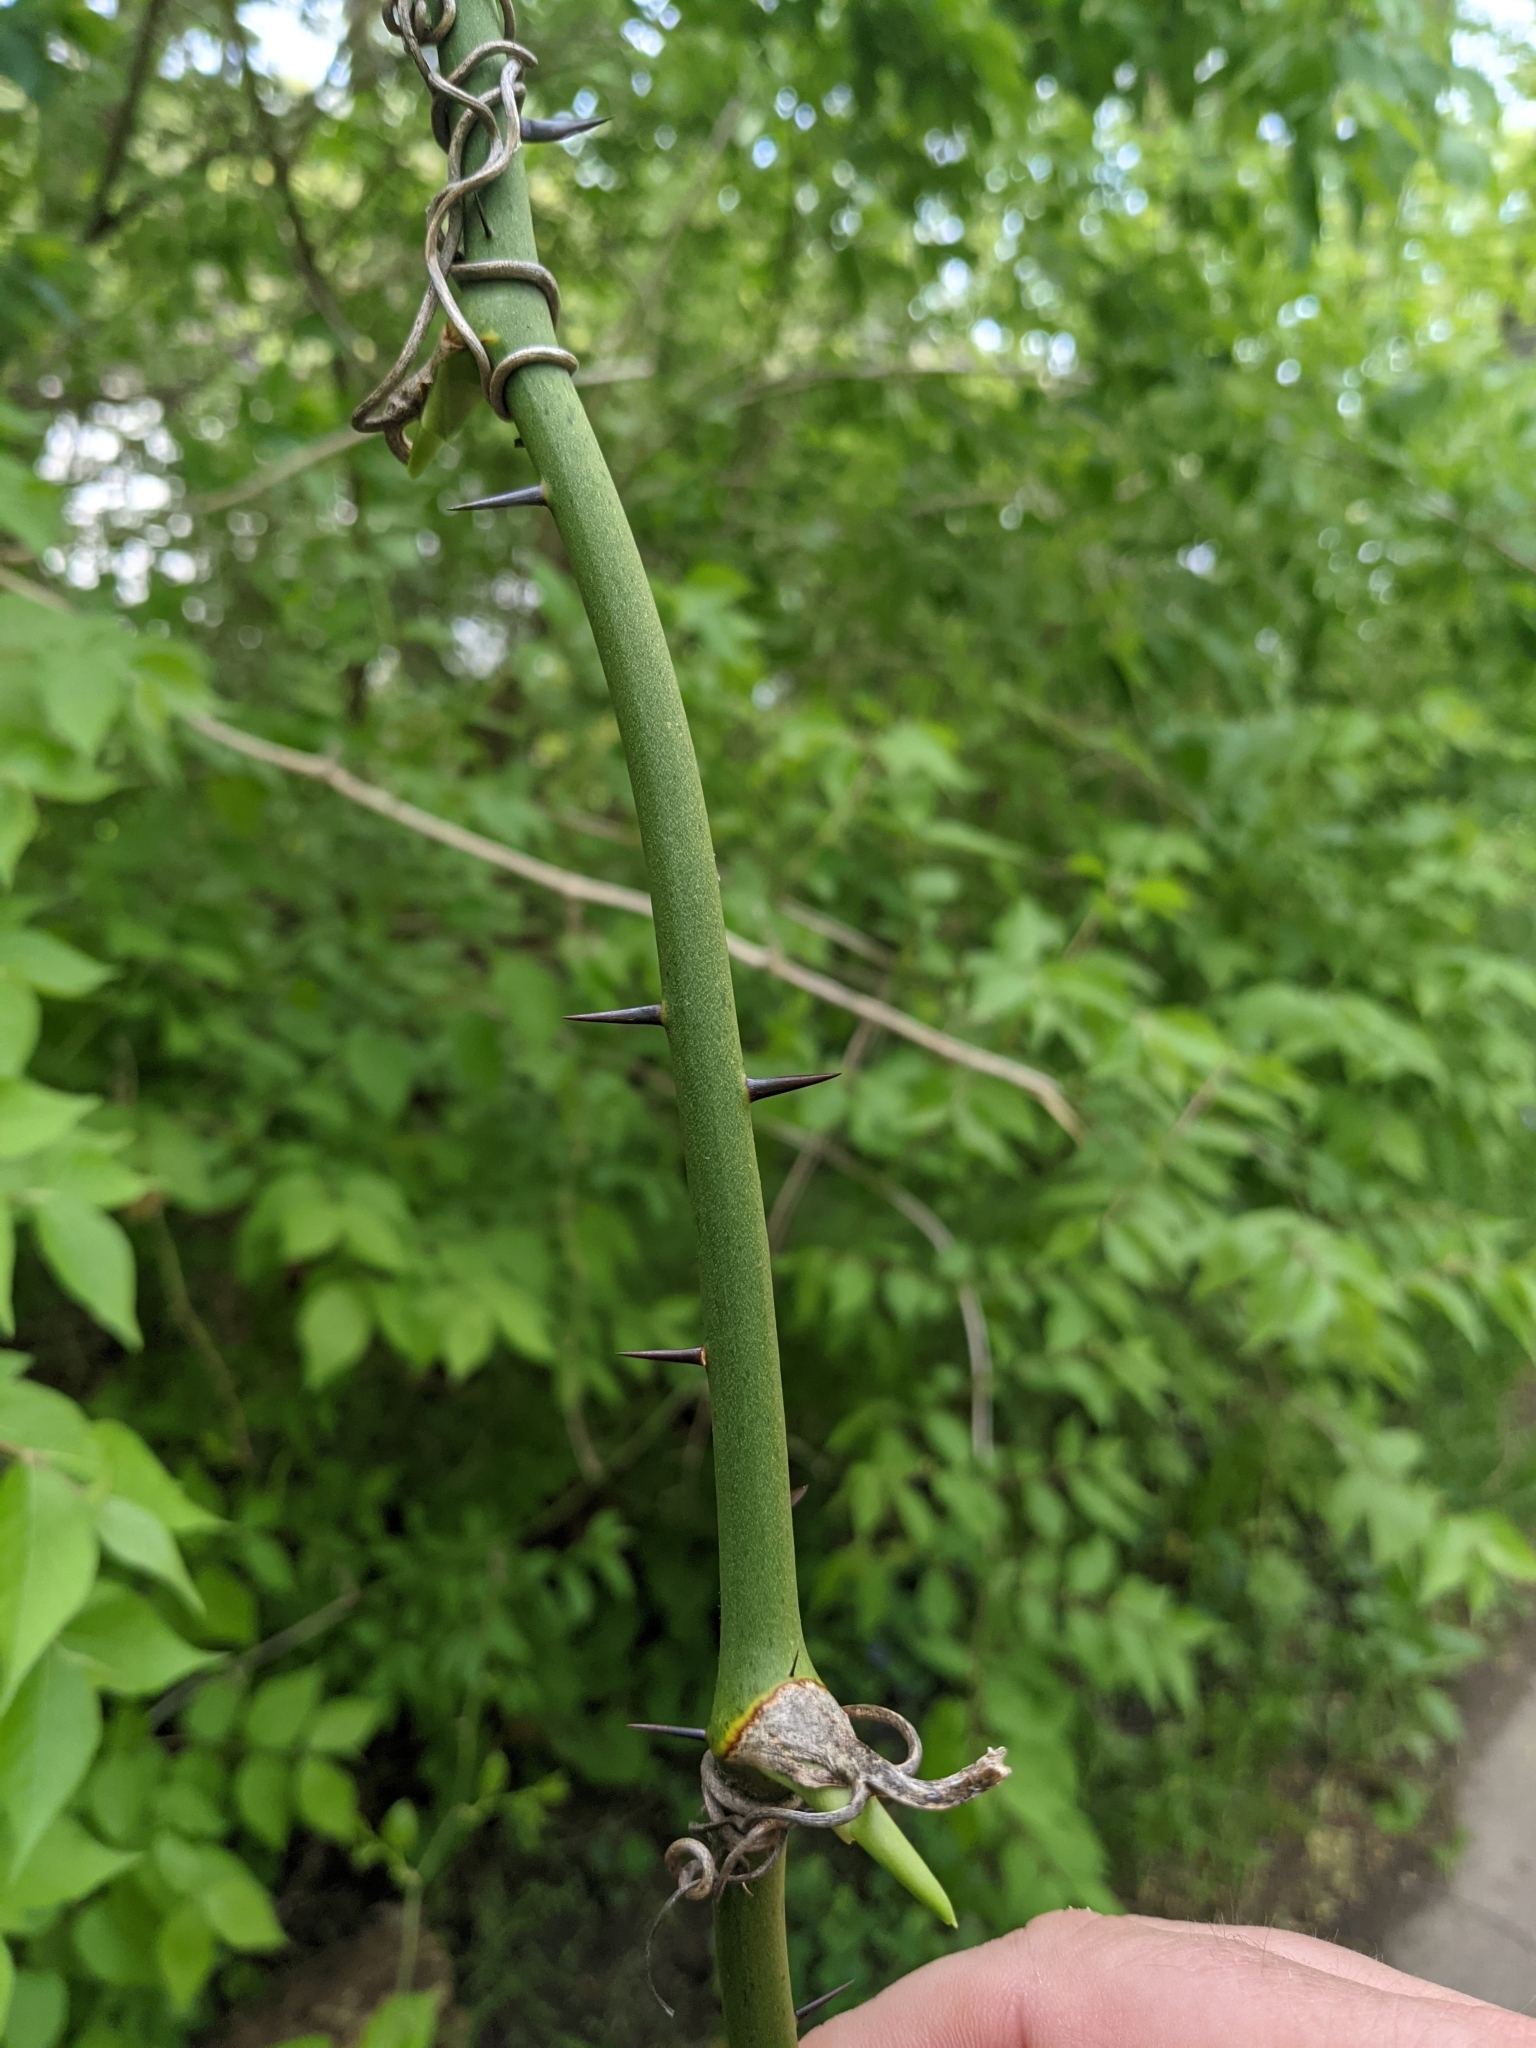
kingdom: Plantae
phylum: Tracheophyta
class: Liliopsida
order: Liliales
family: Smilacaceae
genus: Smilax
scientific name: Smilax tamnoides
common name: Hellfetter
